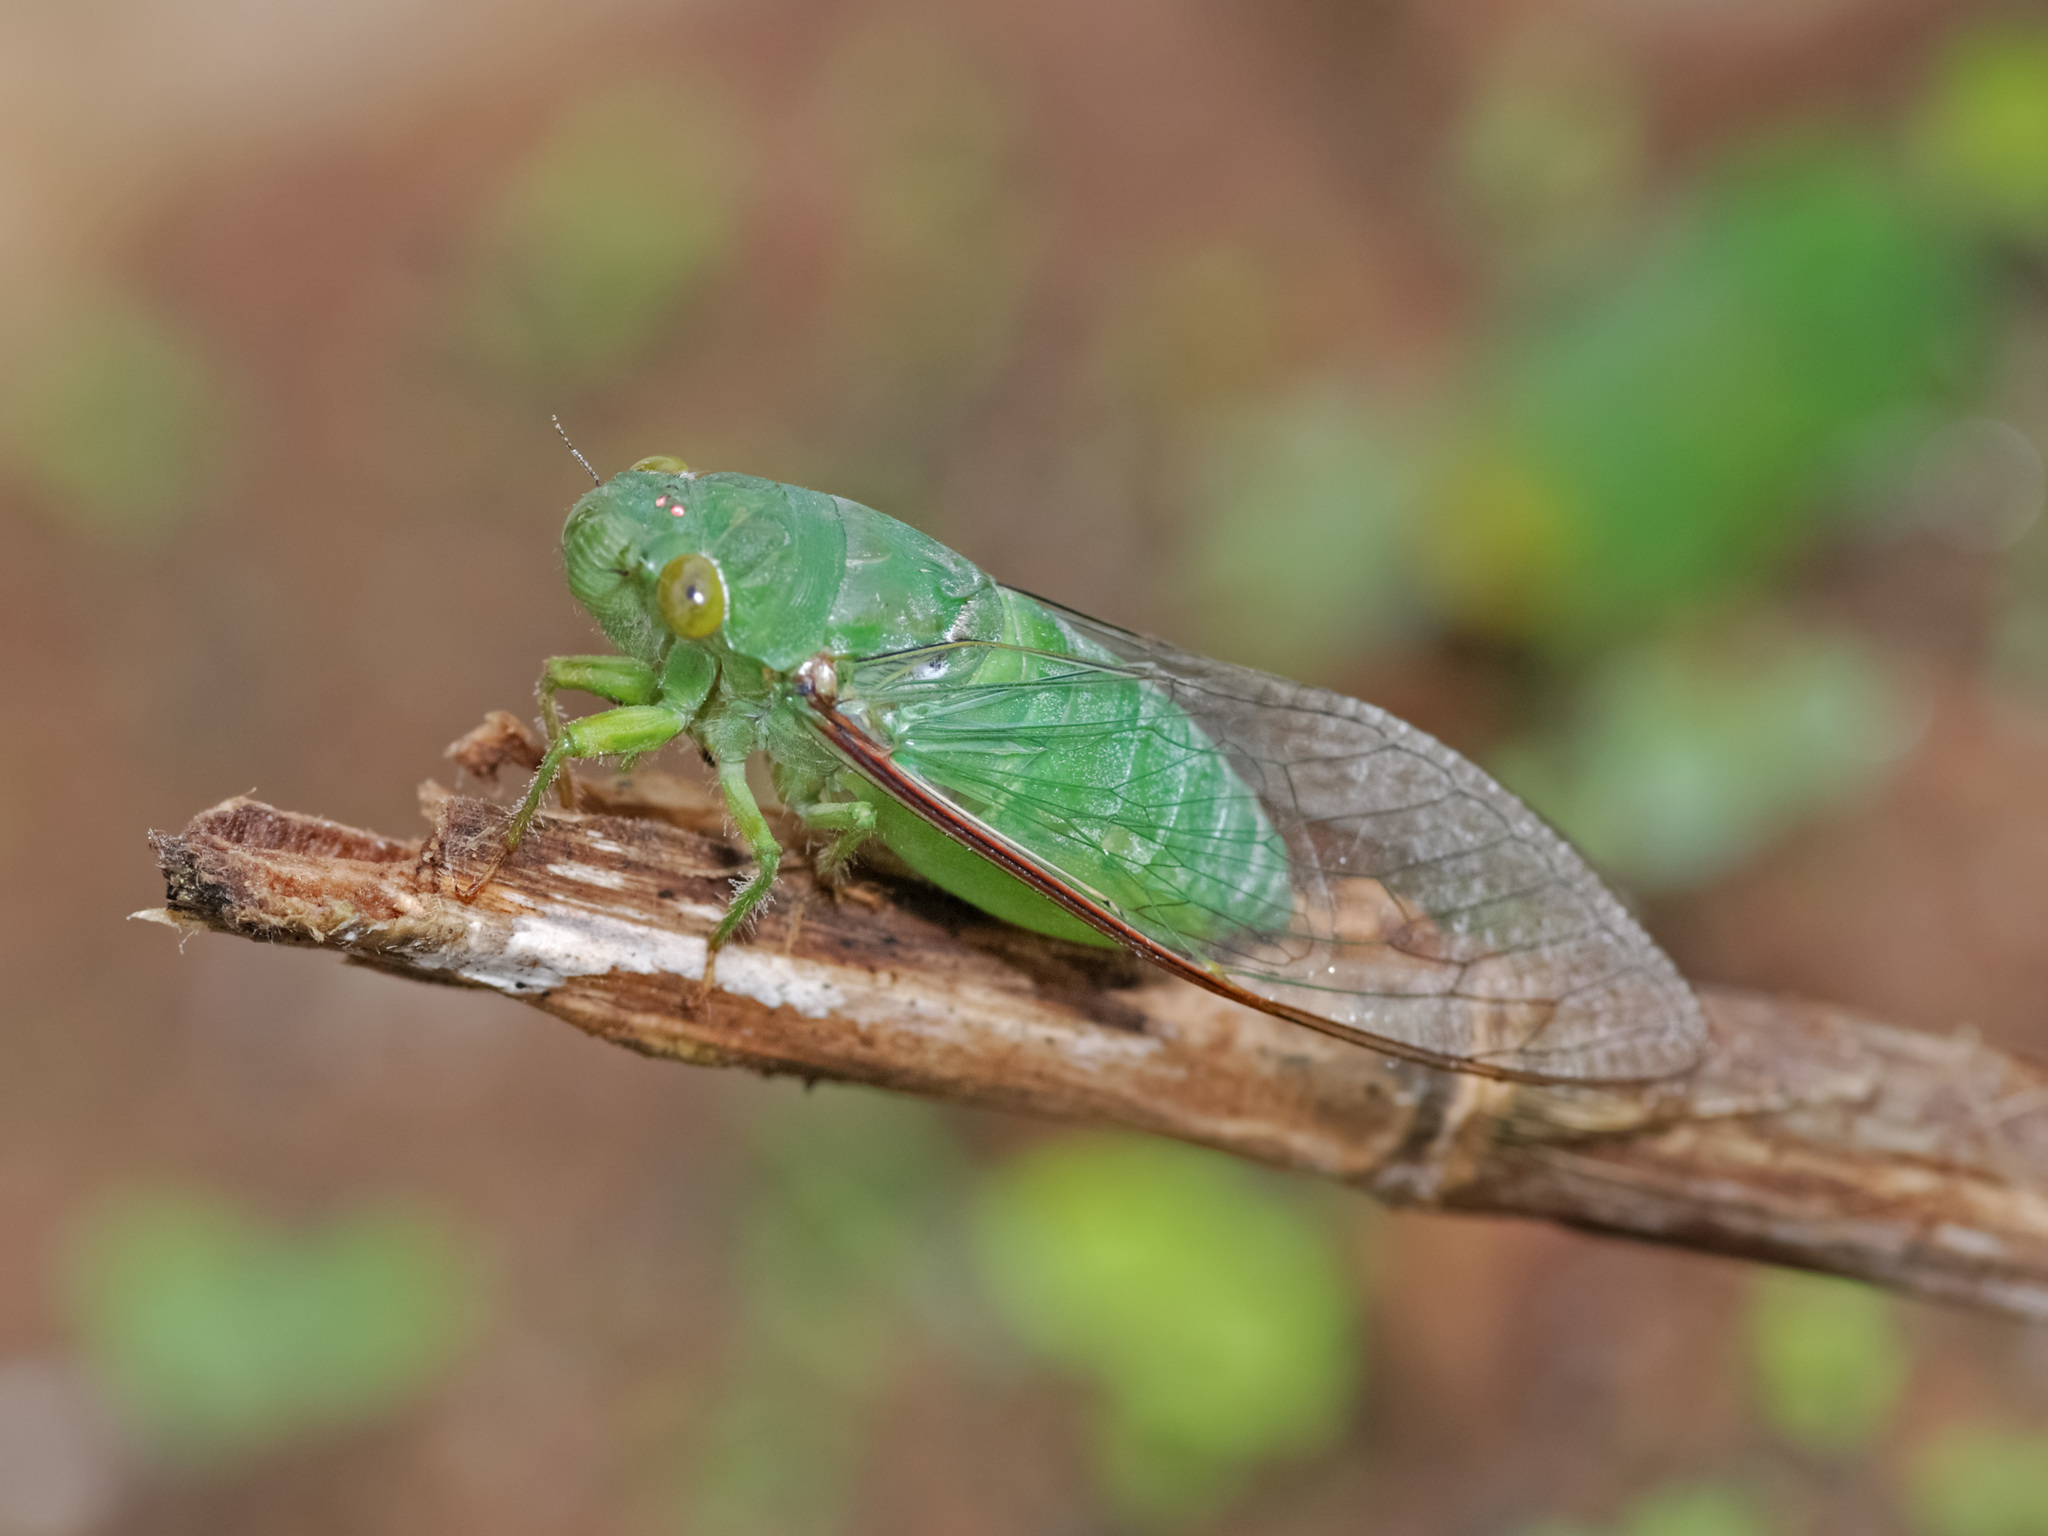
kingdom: Animalia
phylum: Arthropoda
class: Insecta
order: Hemiptera
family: Cicadidae
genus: Dundubia
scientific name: Dundubia somraji
